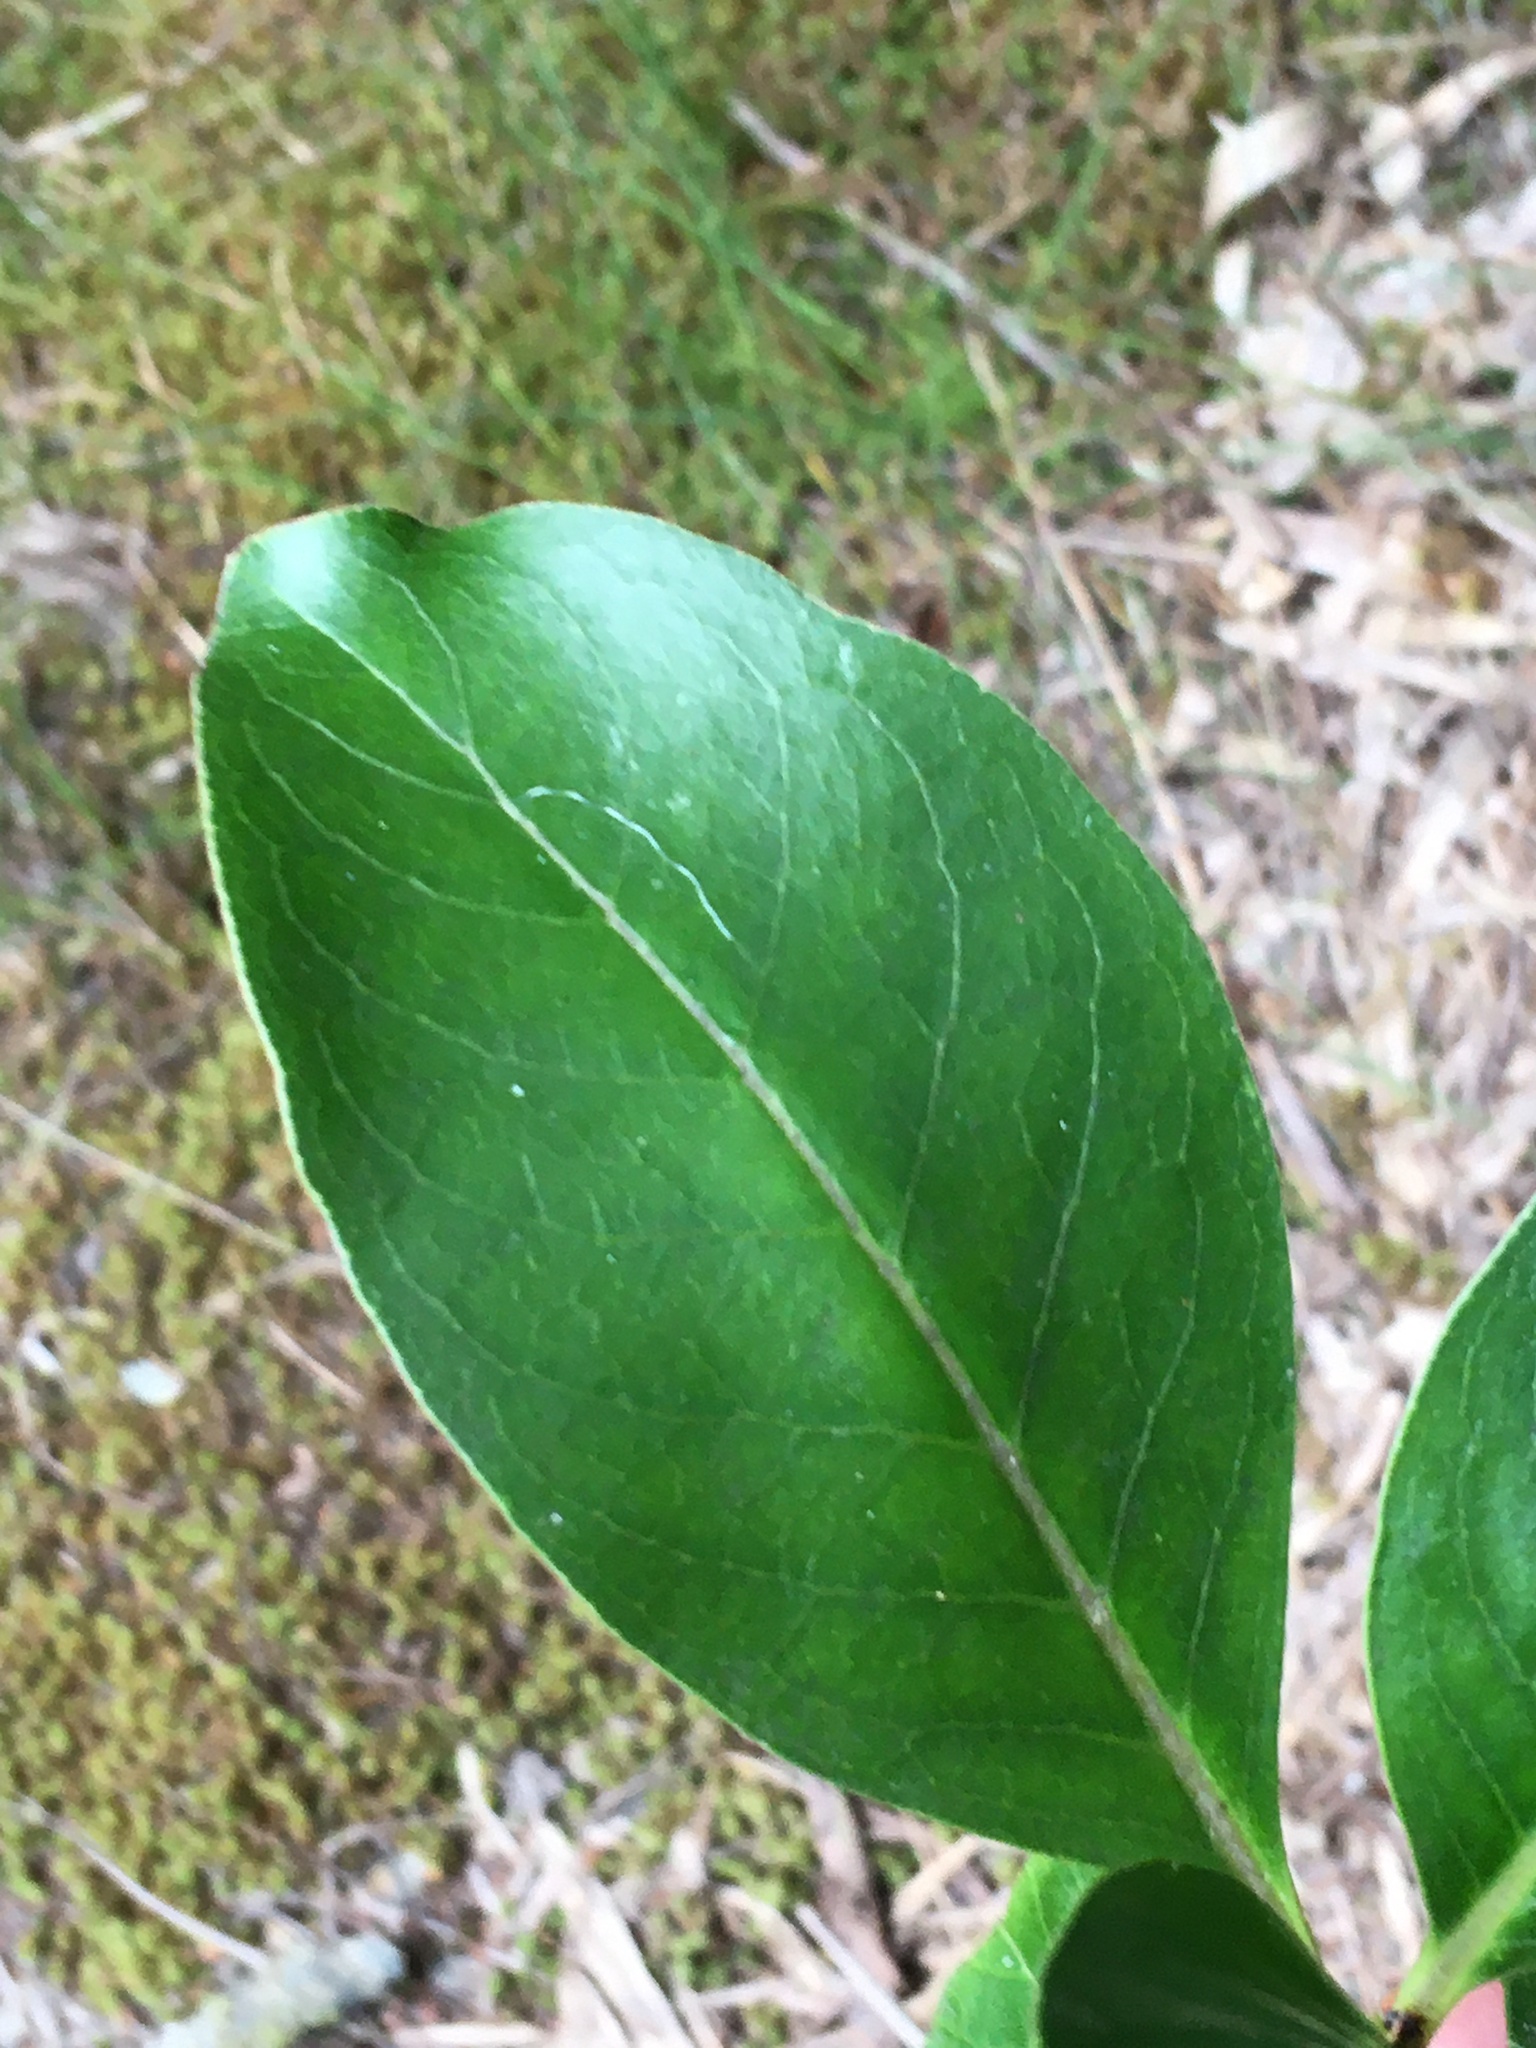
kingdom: Plantae
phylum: Tracheophyta
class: Magnoliopsida
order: Gentianales
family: Rubiaceae
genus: Coprosma
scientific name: Coprosma lucida
